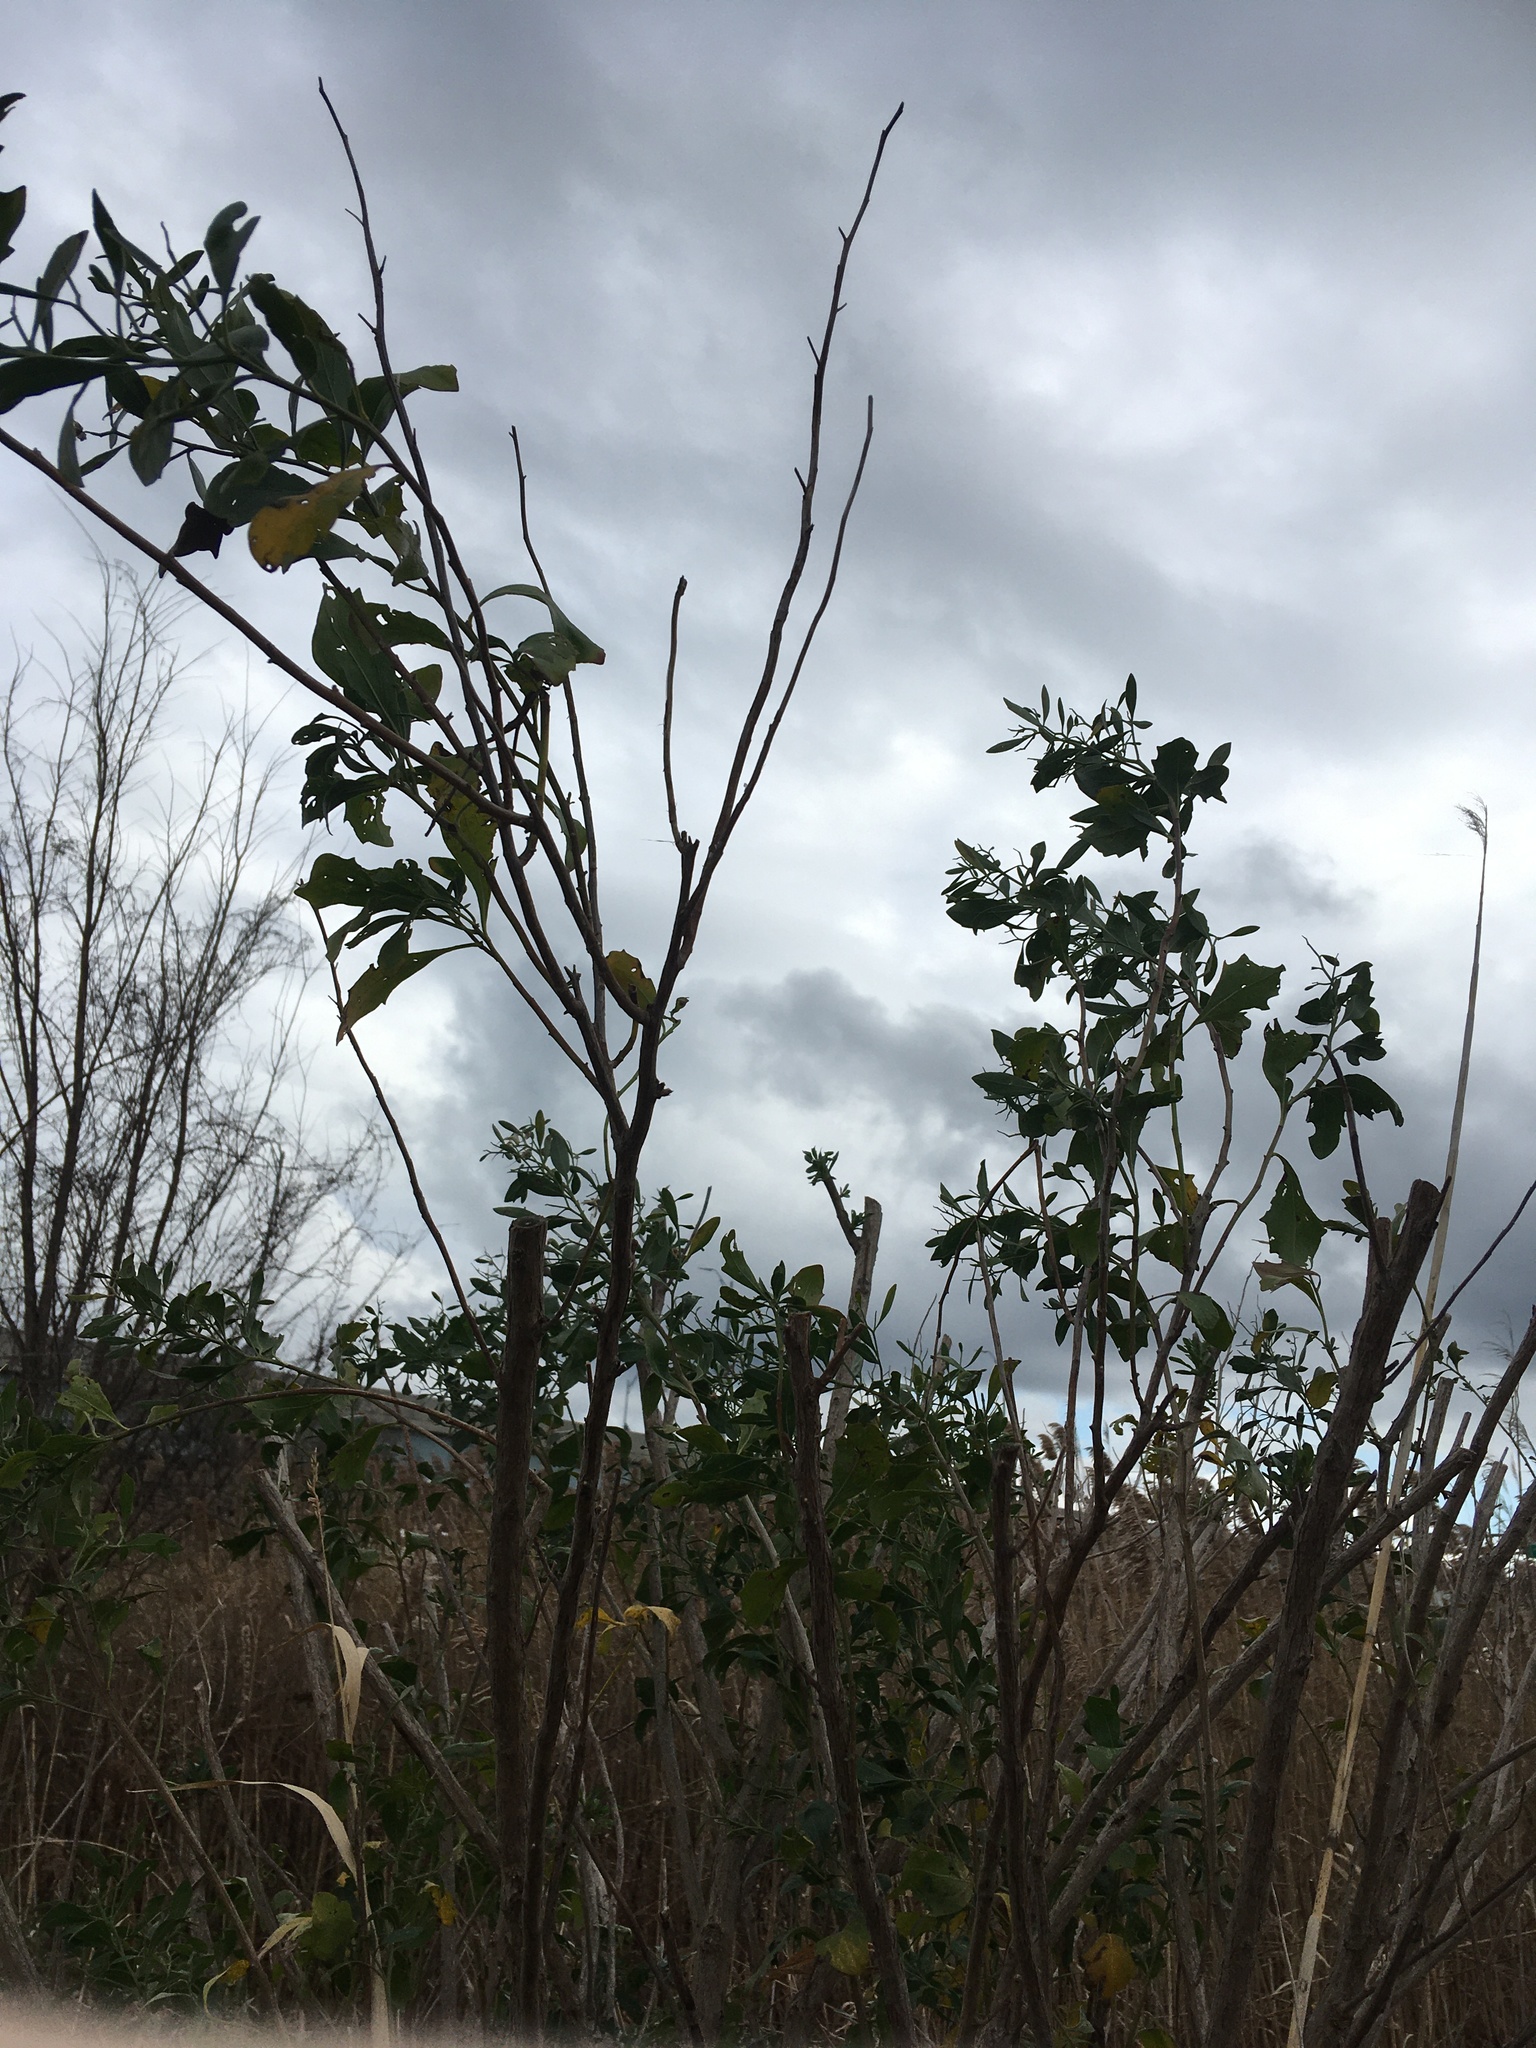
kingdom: Plantae
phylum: Tracheophyta
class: Magnoliopsida
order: Asterales
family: Asteraceae
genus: Baccharis
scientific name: Baccharis halimifolia
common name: Eastern baccharis
